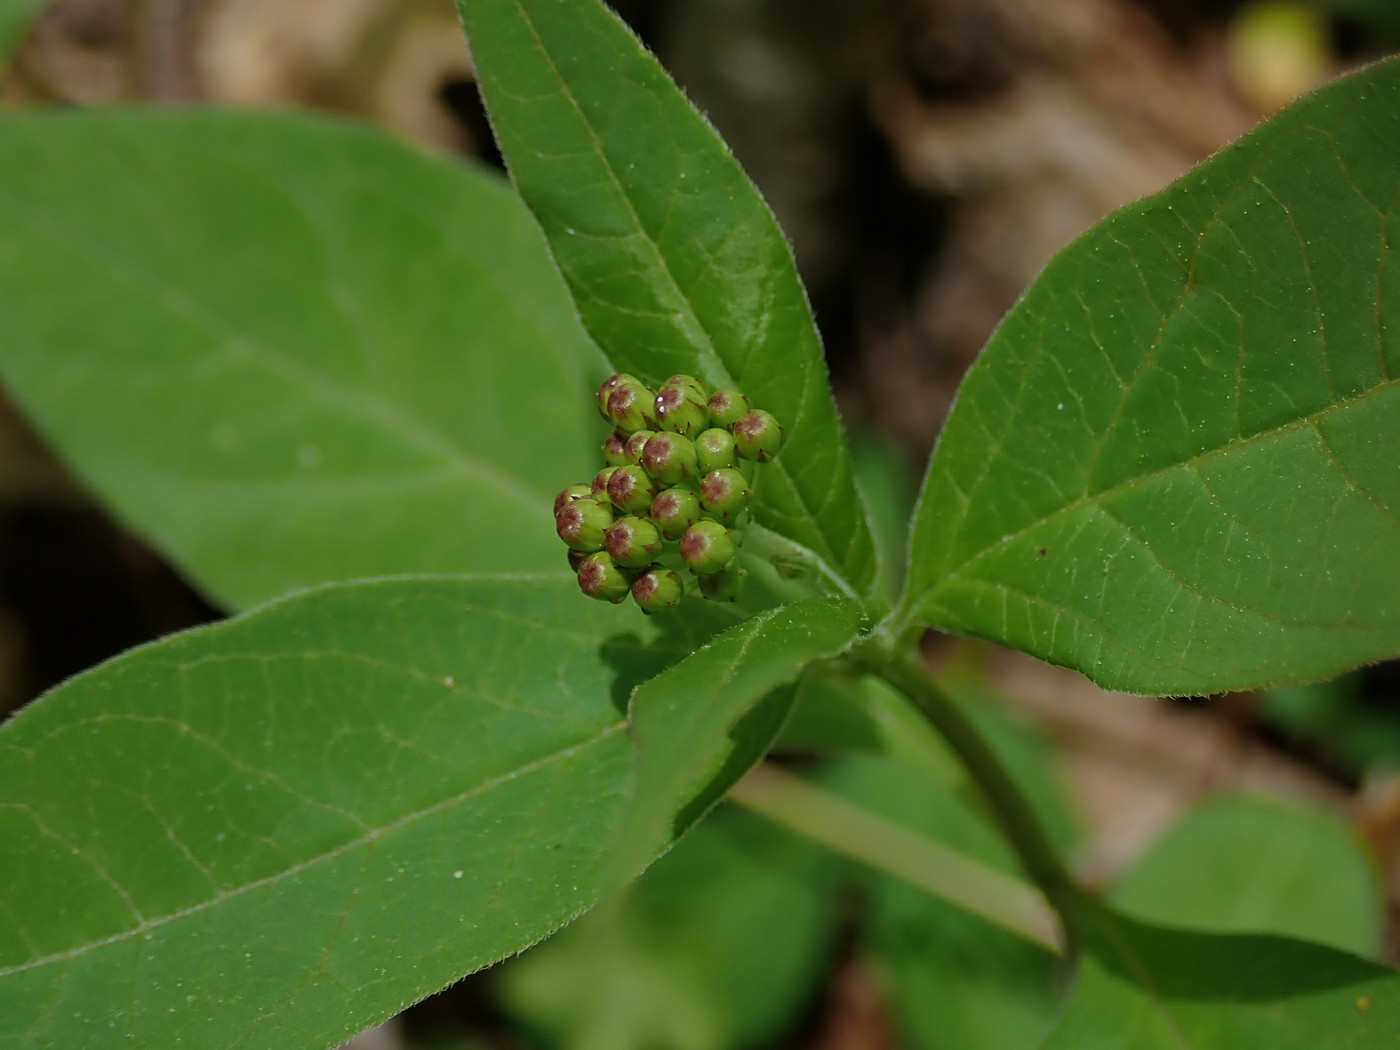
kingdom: Plantae
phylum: Tracheophyta
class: Magnoliopsida
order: Gentianales
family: Apocynaceae
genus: Asclepias
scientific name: Asclepias quadrifolia
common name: Whorled milkweed
